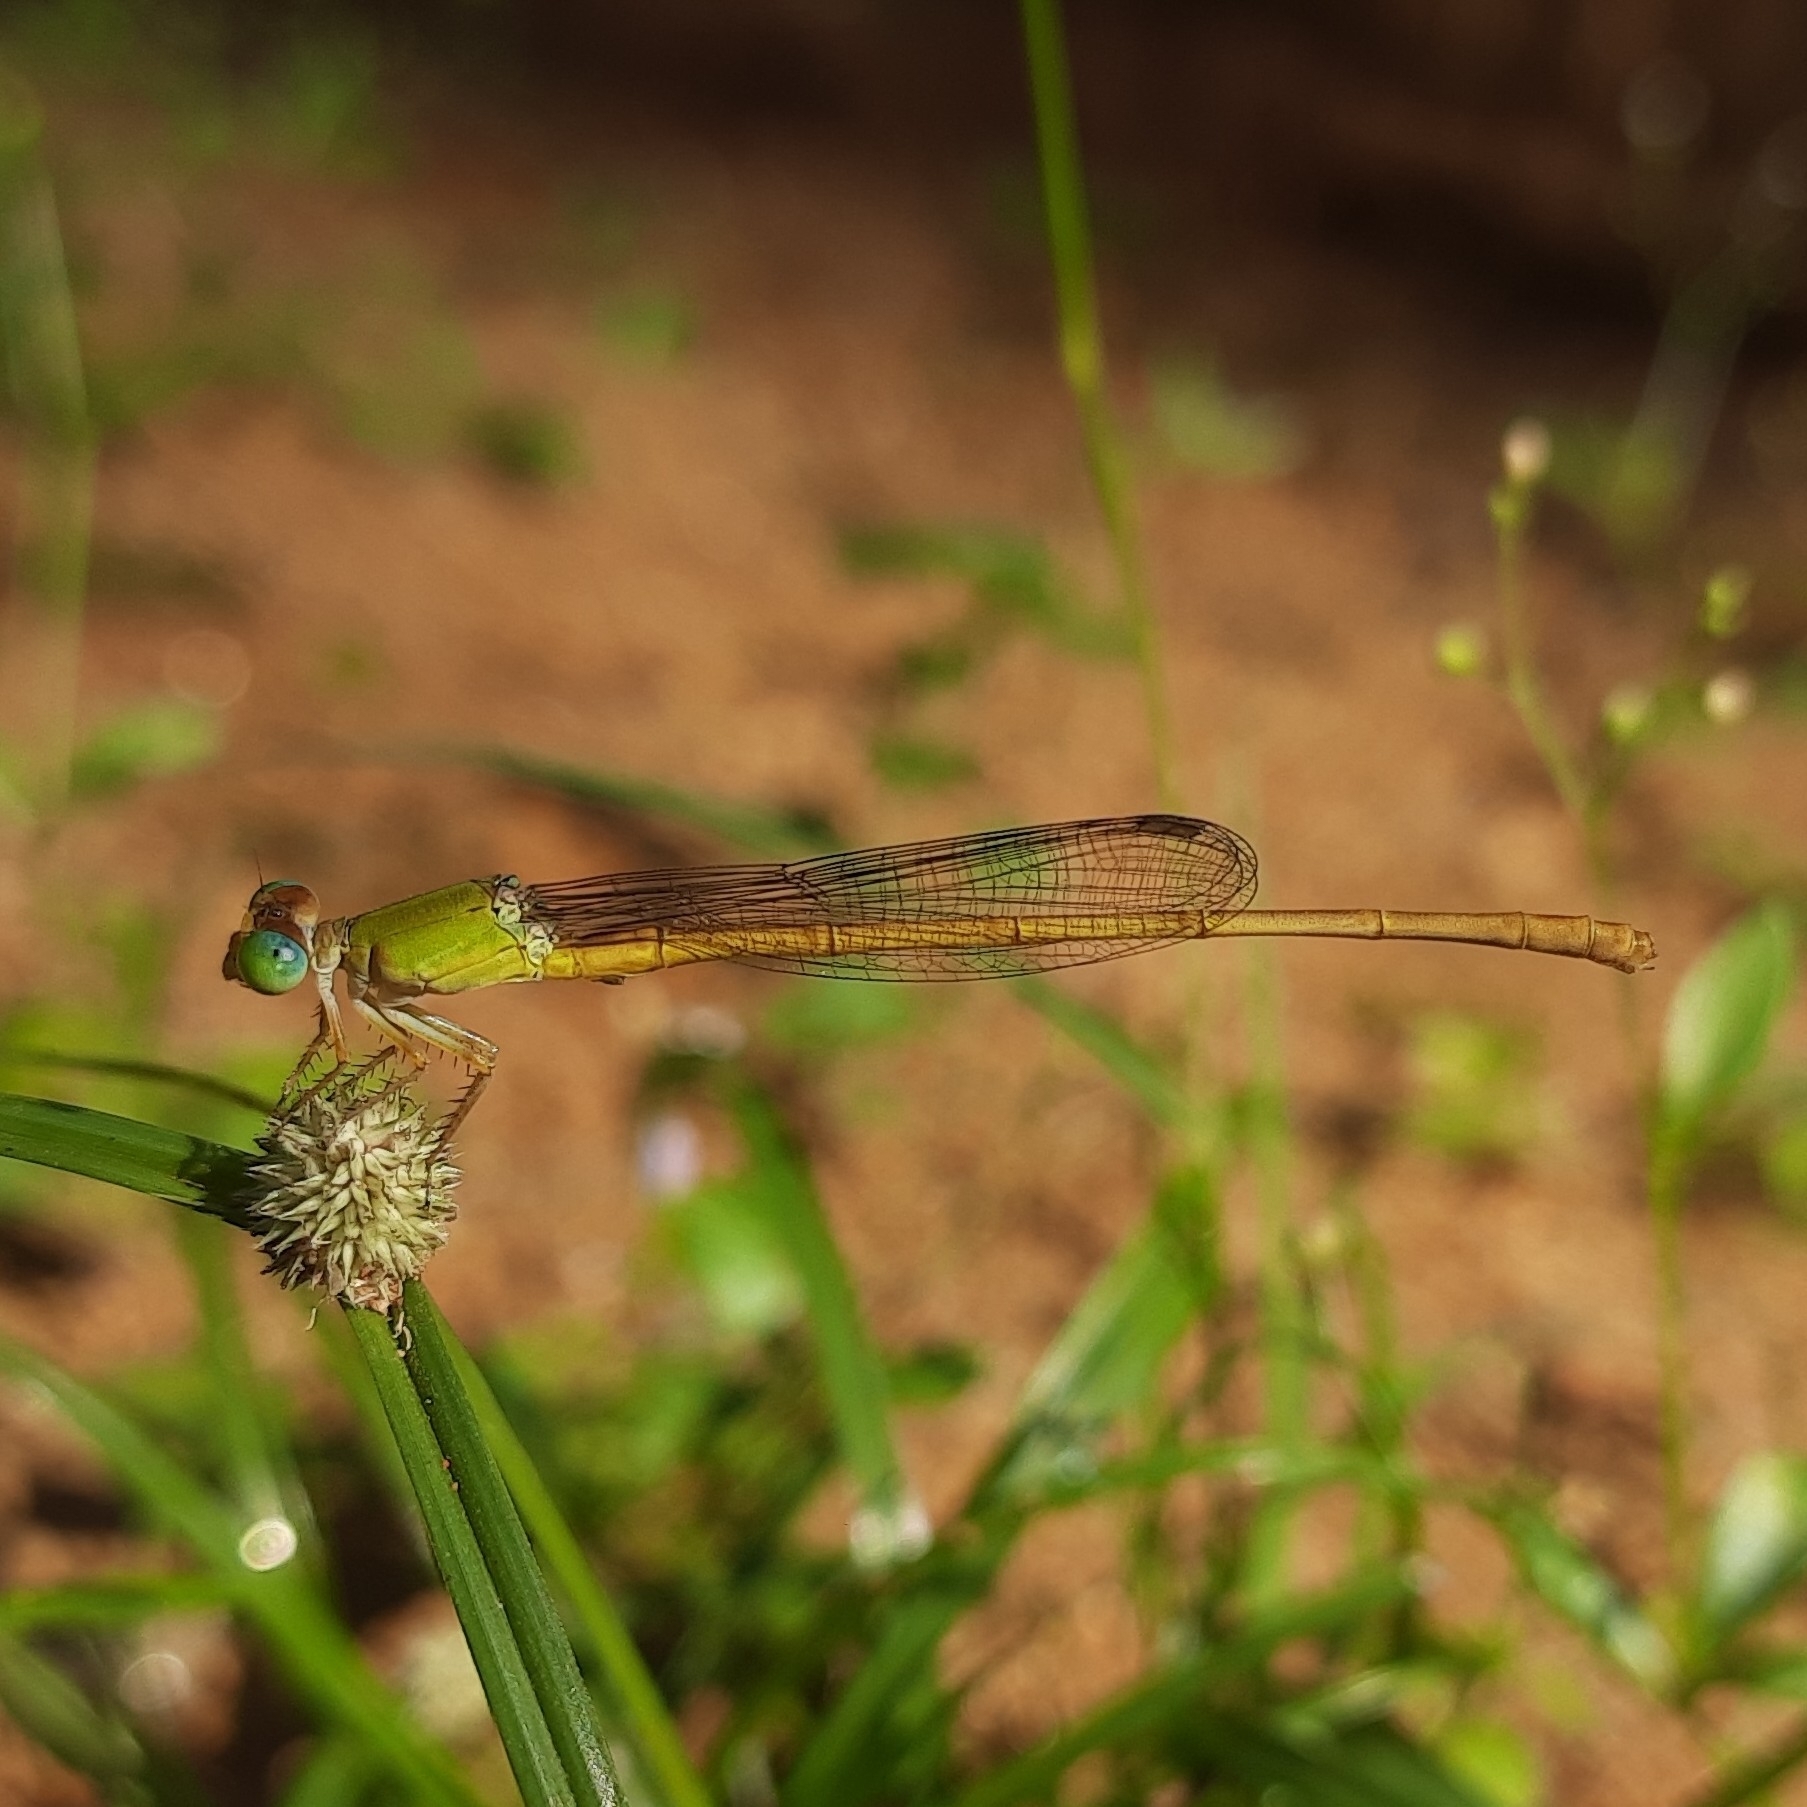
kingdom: Animalia
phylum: Arthropoda
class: Insecta
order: Odonata
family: Coenagrionidae
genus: Ceriagrion
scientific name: Ceriagrion coromandelianum
